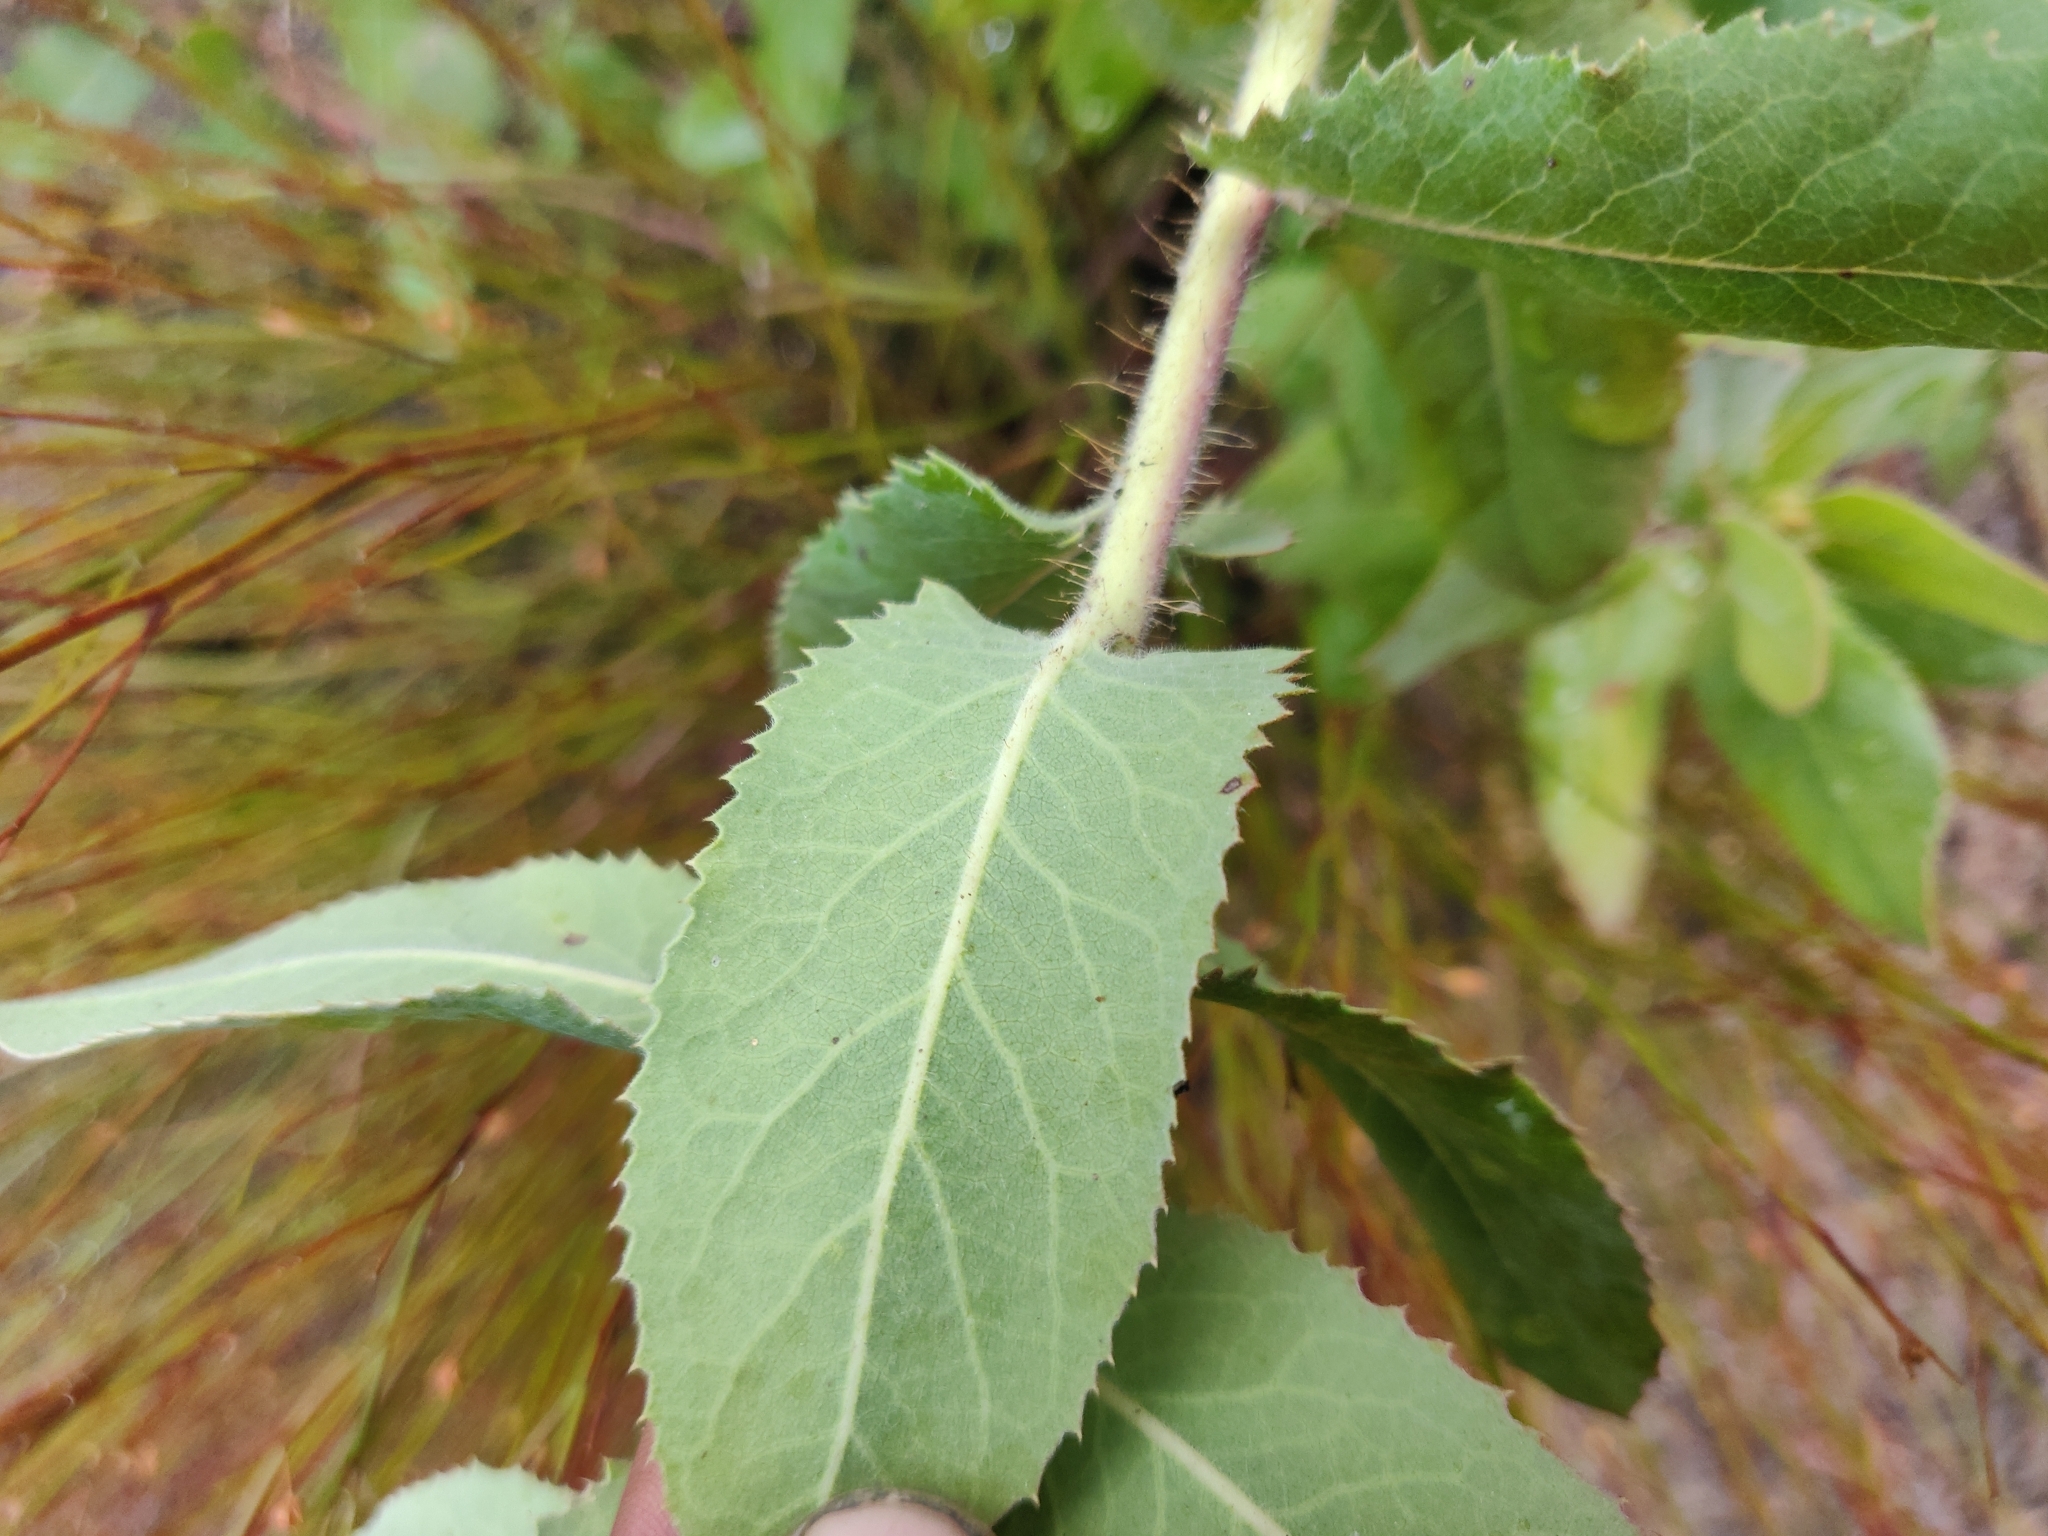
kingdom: Plantae
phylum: Tracheophyta
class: Magnoliopsida
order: Ericales
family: Ericaceae
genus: Arctostaphylos
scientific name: Arctostaphylos andersonii
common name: Santa cruz manzanita
